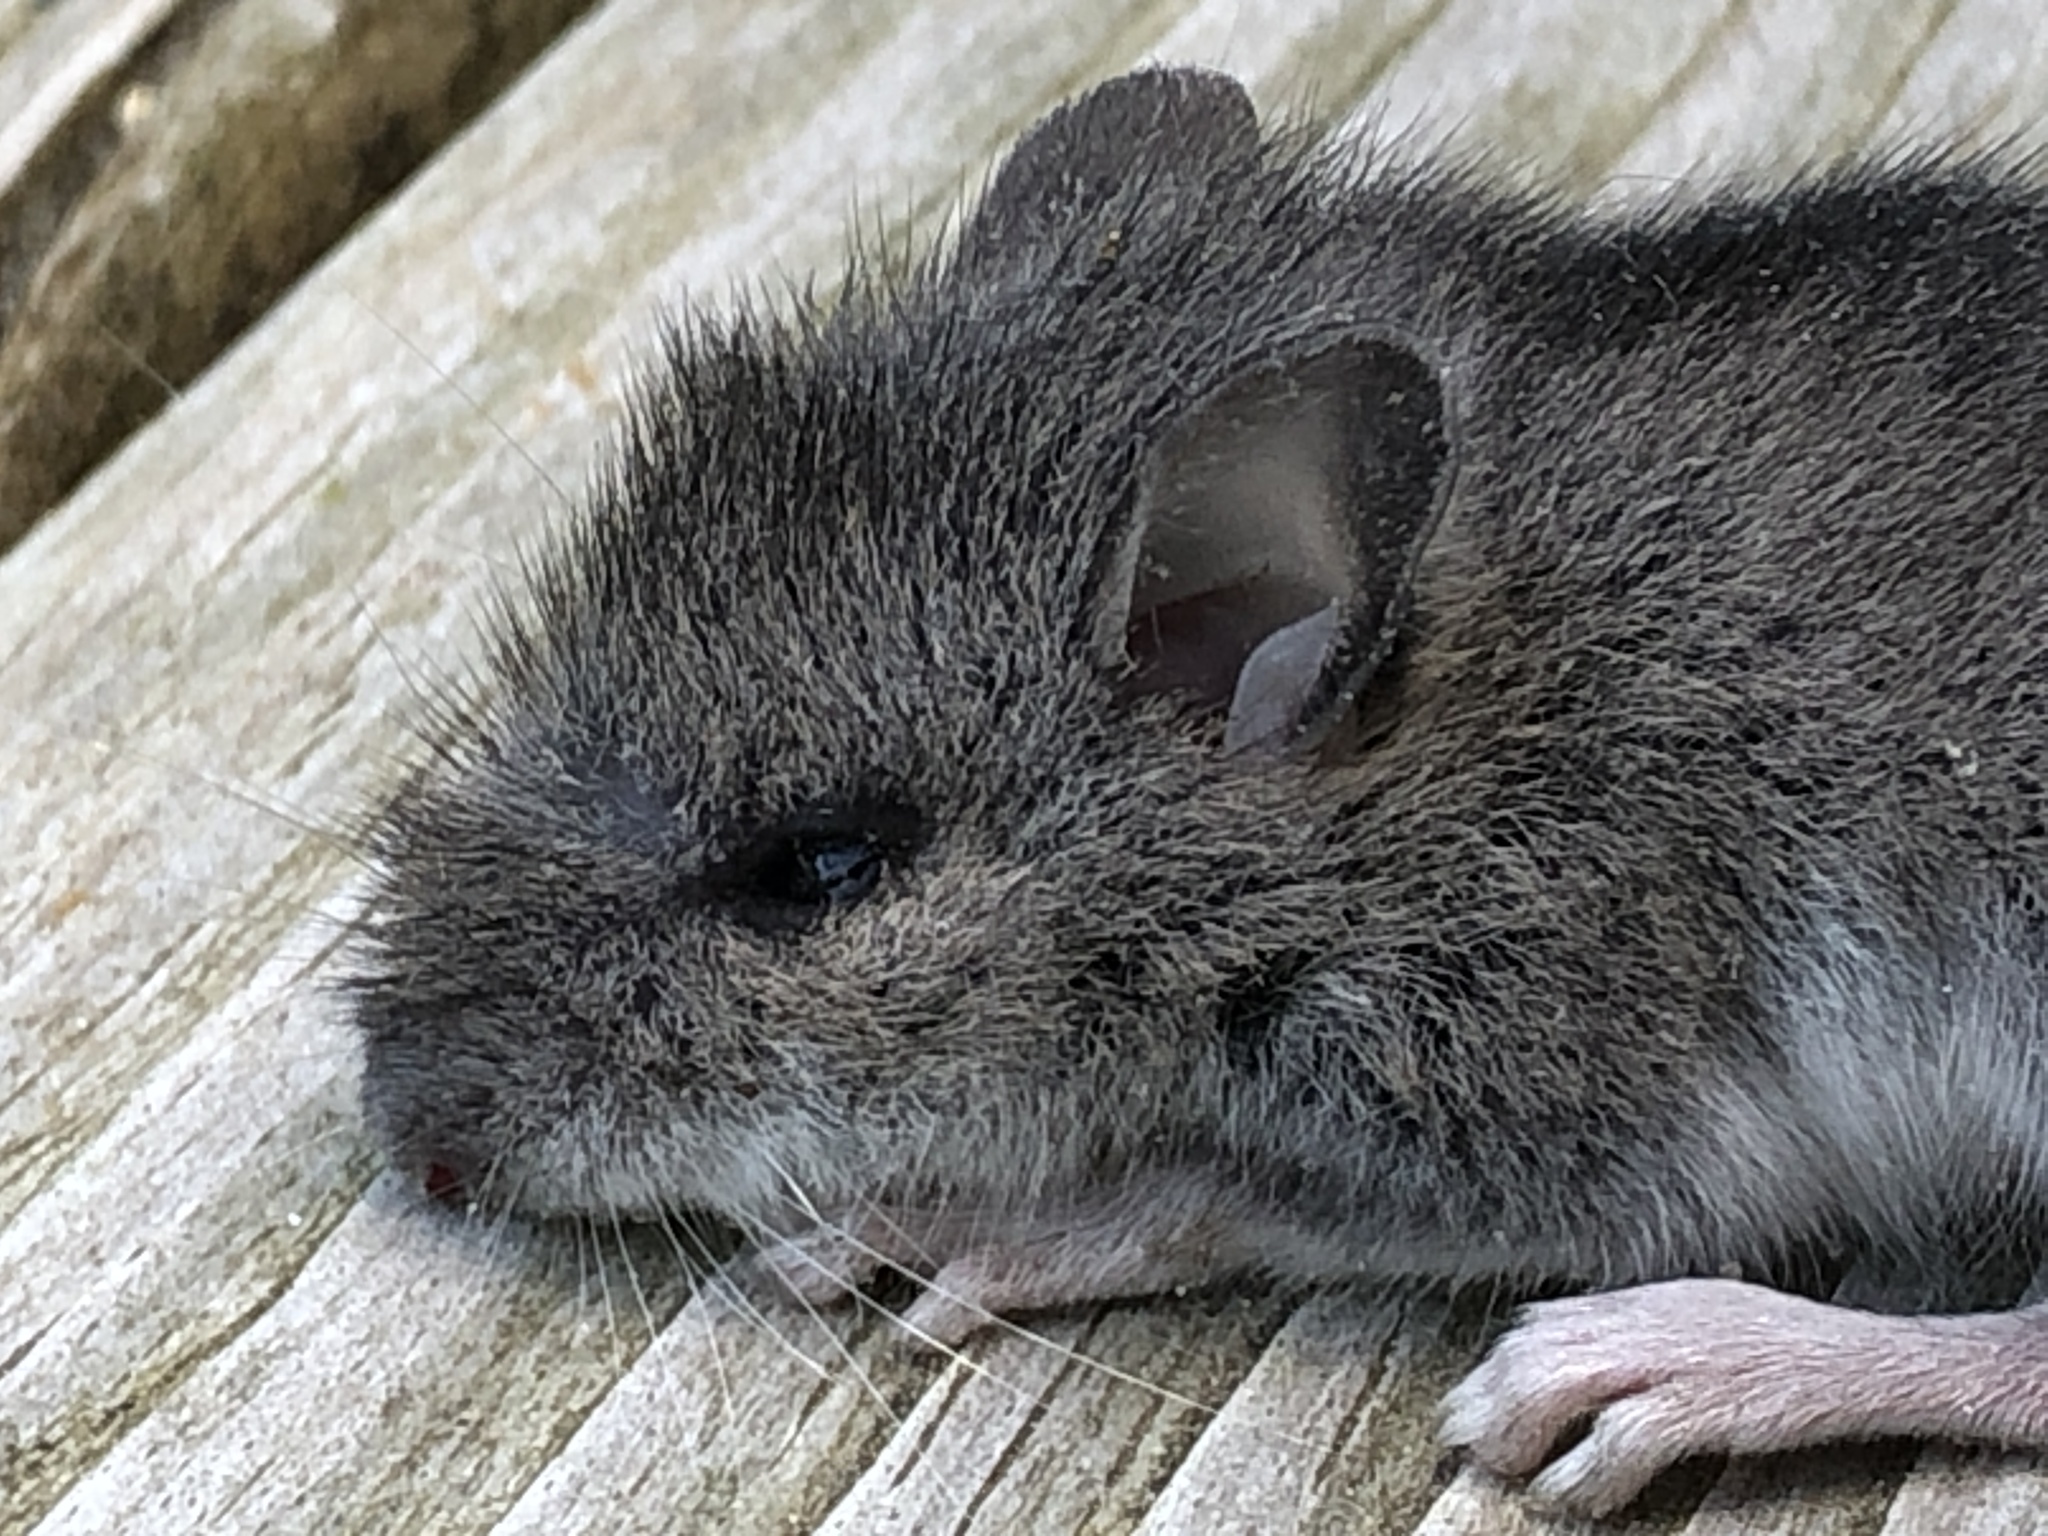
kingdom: Animalia
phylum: Chordata
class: Mammalia
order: Rodentia
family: Cricetidae
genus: Peromyscus
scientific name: Peromyscus leucopus
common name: White-footed deermouse
